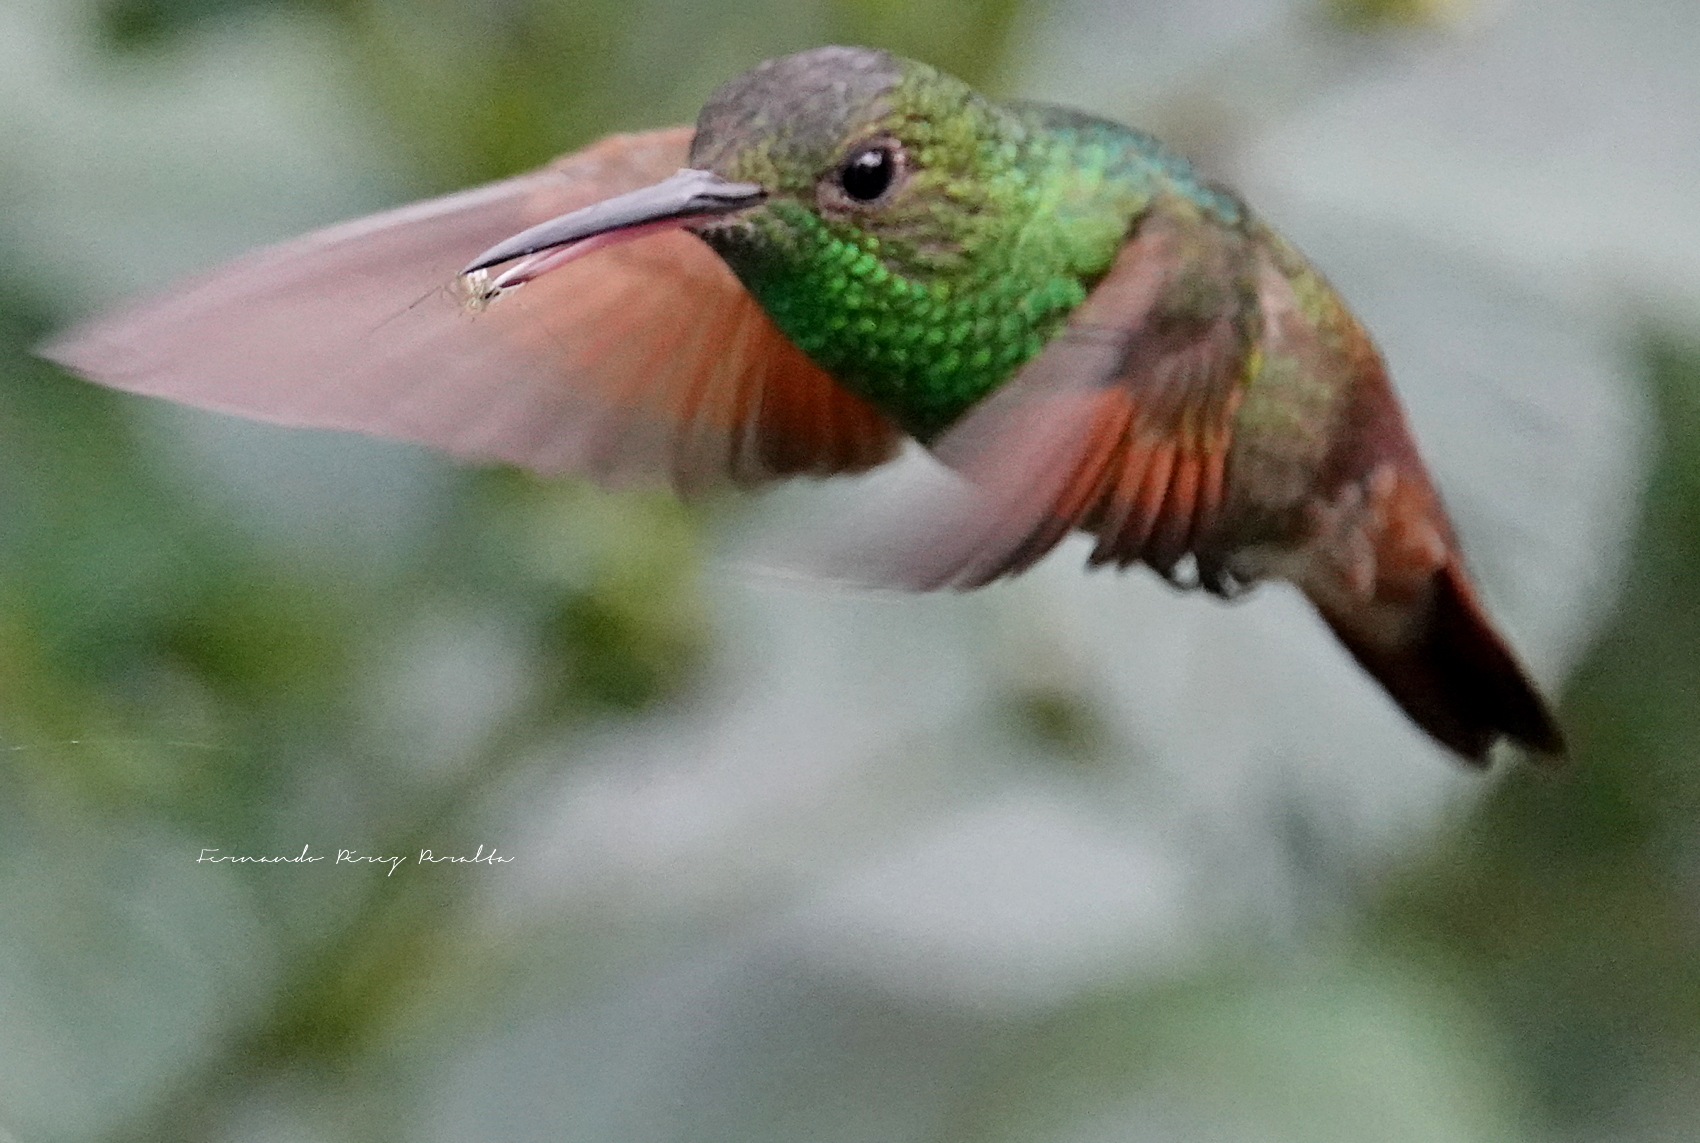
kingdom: Animalia
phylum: Chordata
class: Aves
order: Apodiformes
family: Trochilidae
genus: Saucerottia
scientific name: Saucerottia beryllina
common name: Berylline hummingbird
